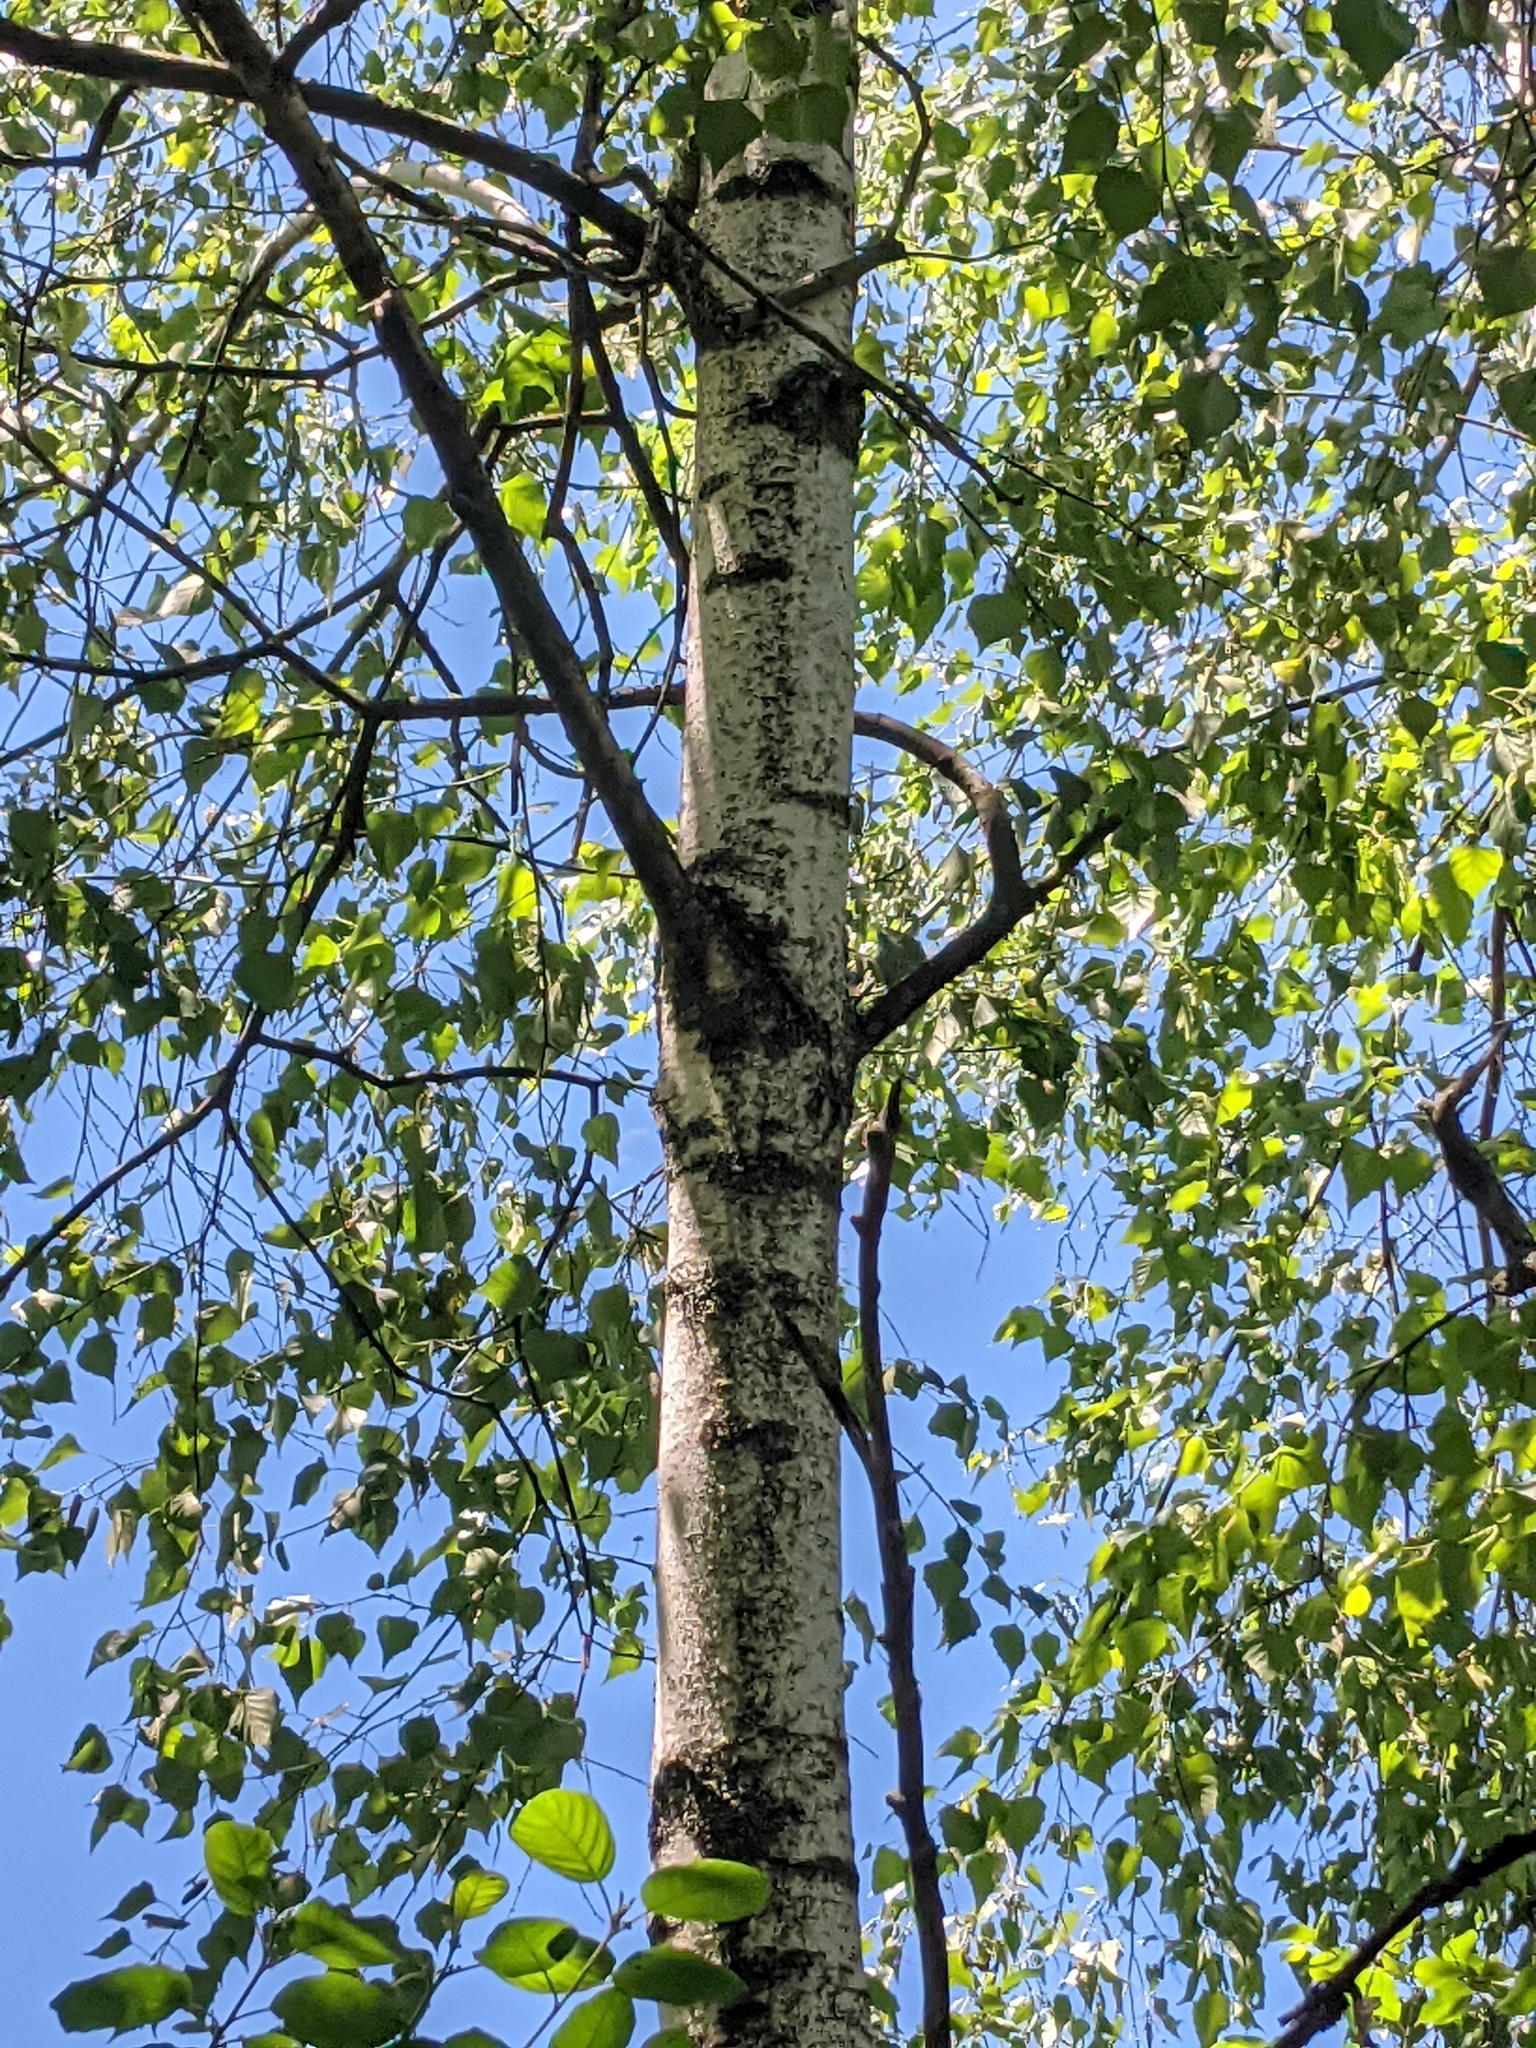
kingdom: Plantae
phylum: Tracheophyta
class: Magnoliopsida
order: Fagales
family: Betulaceae
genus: Betula
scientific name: Betula populifolia
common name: Fire birch
